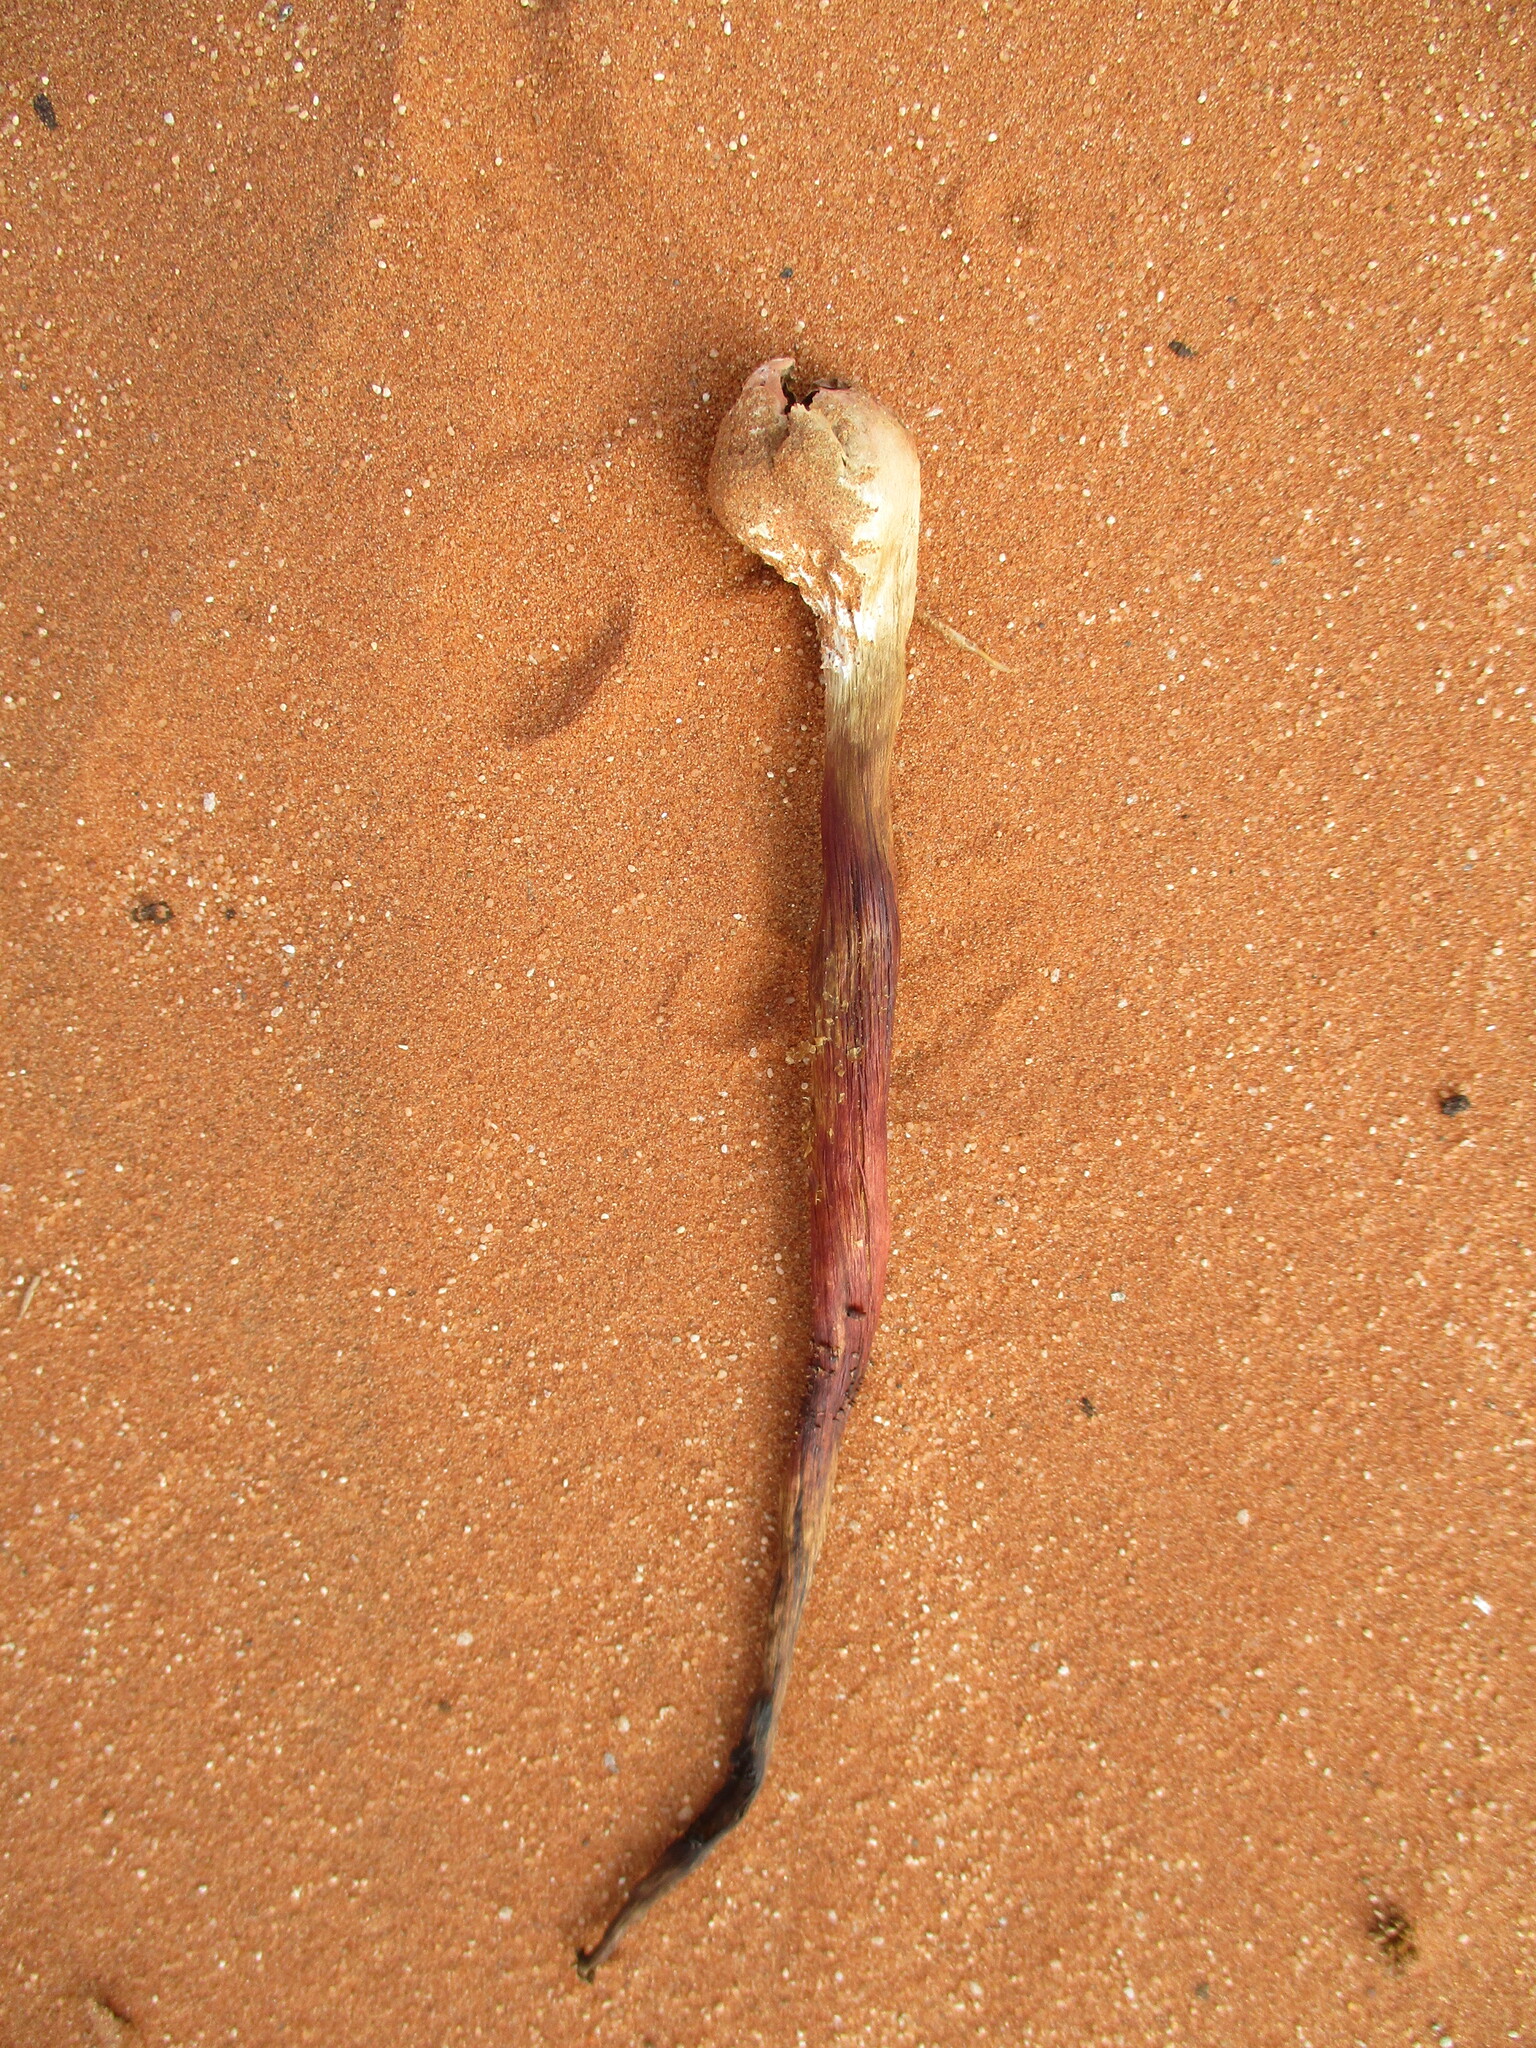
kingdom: Fungi
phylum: Basidiomycota
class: Agaricomycetes
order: Agaricales
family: Agaricaceae
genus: Podaxis
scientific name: Podaxis pistillaris
